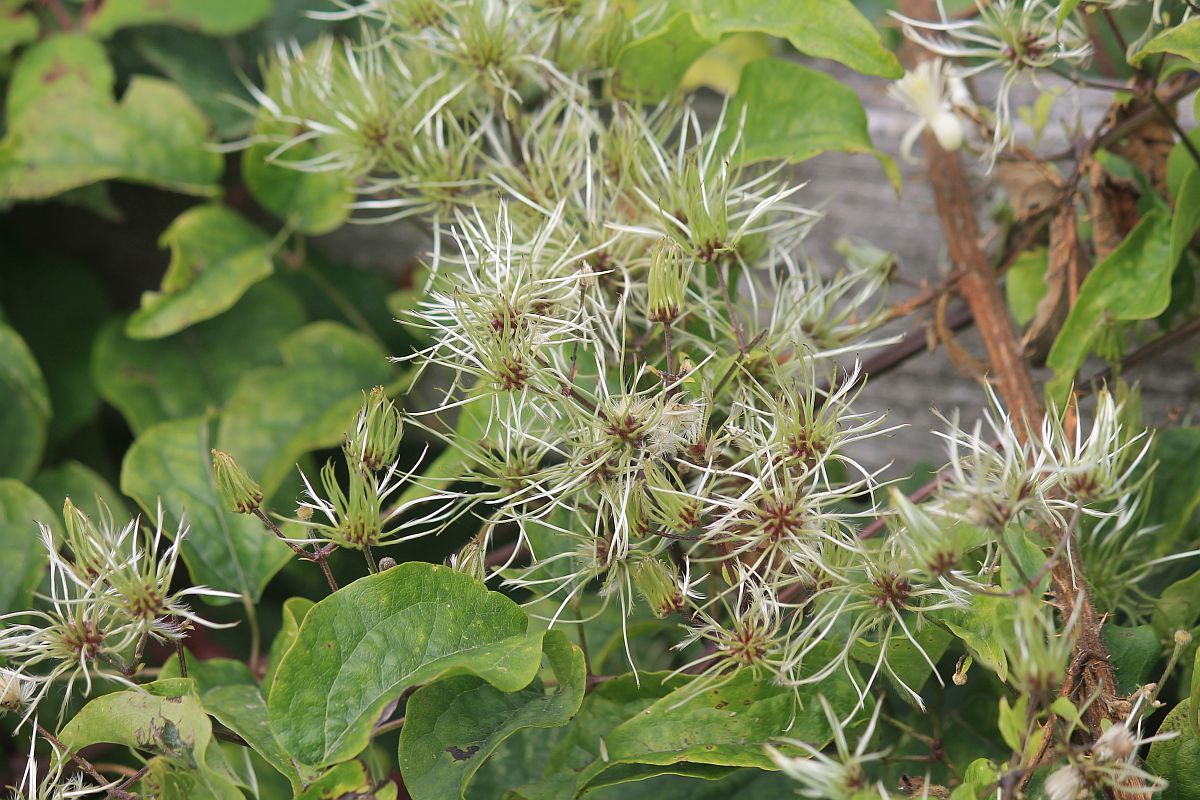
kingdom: Plantae
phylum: Tracheophyta
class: Magnoliopsida
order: Ranunculales
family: Ranunculaceae
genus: Clematis
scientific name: Clematis vitalba
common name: Evergreen clematis
